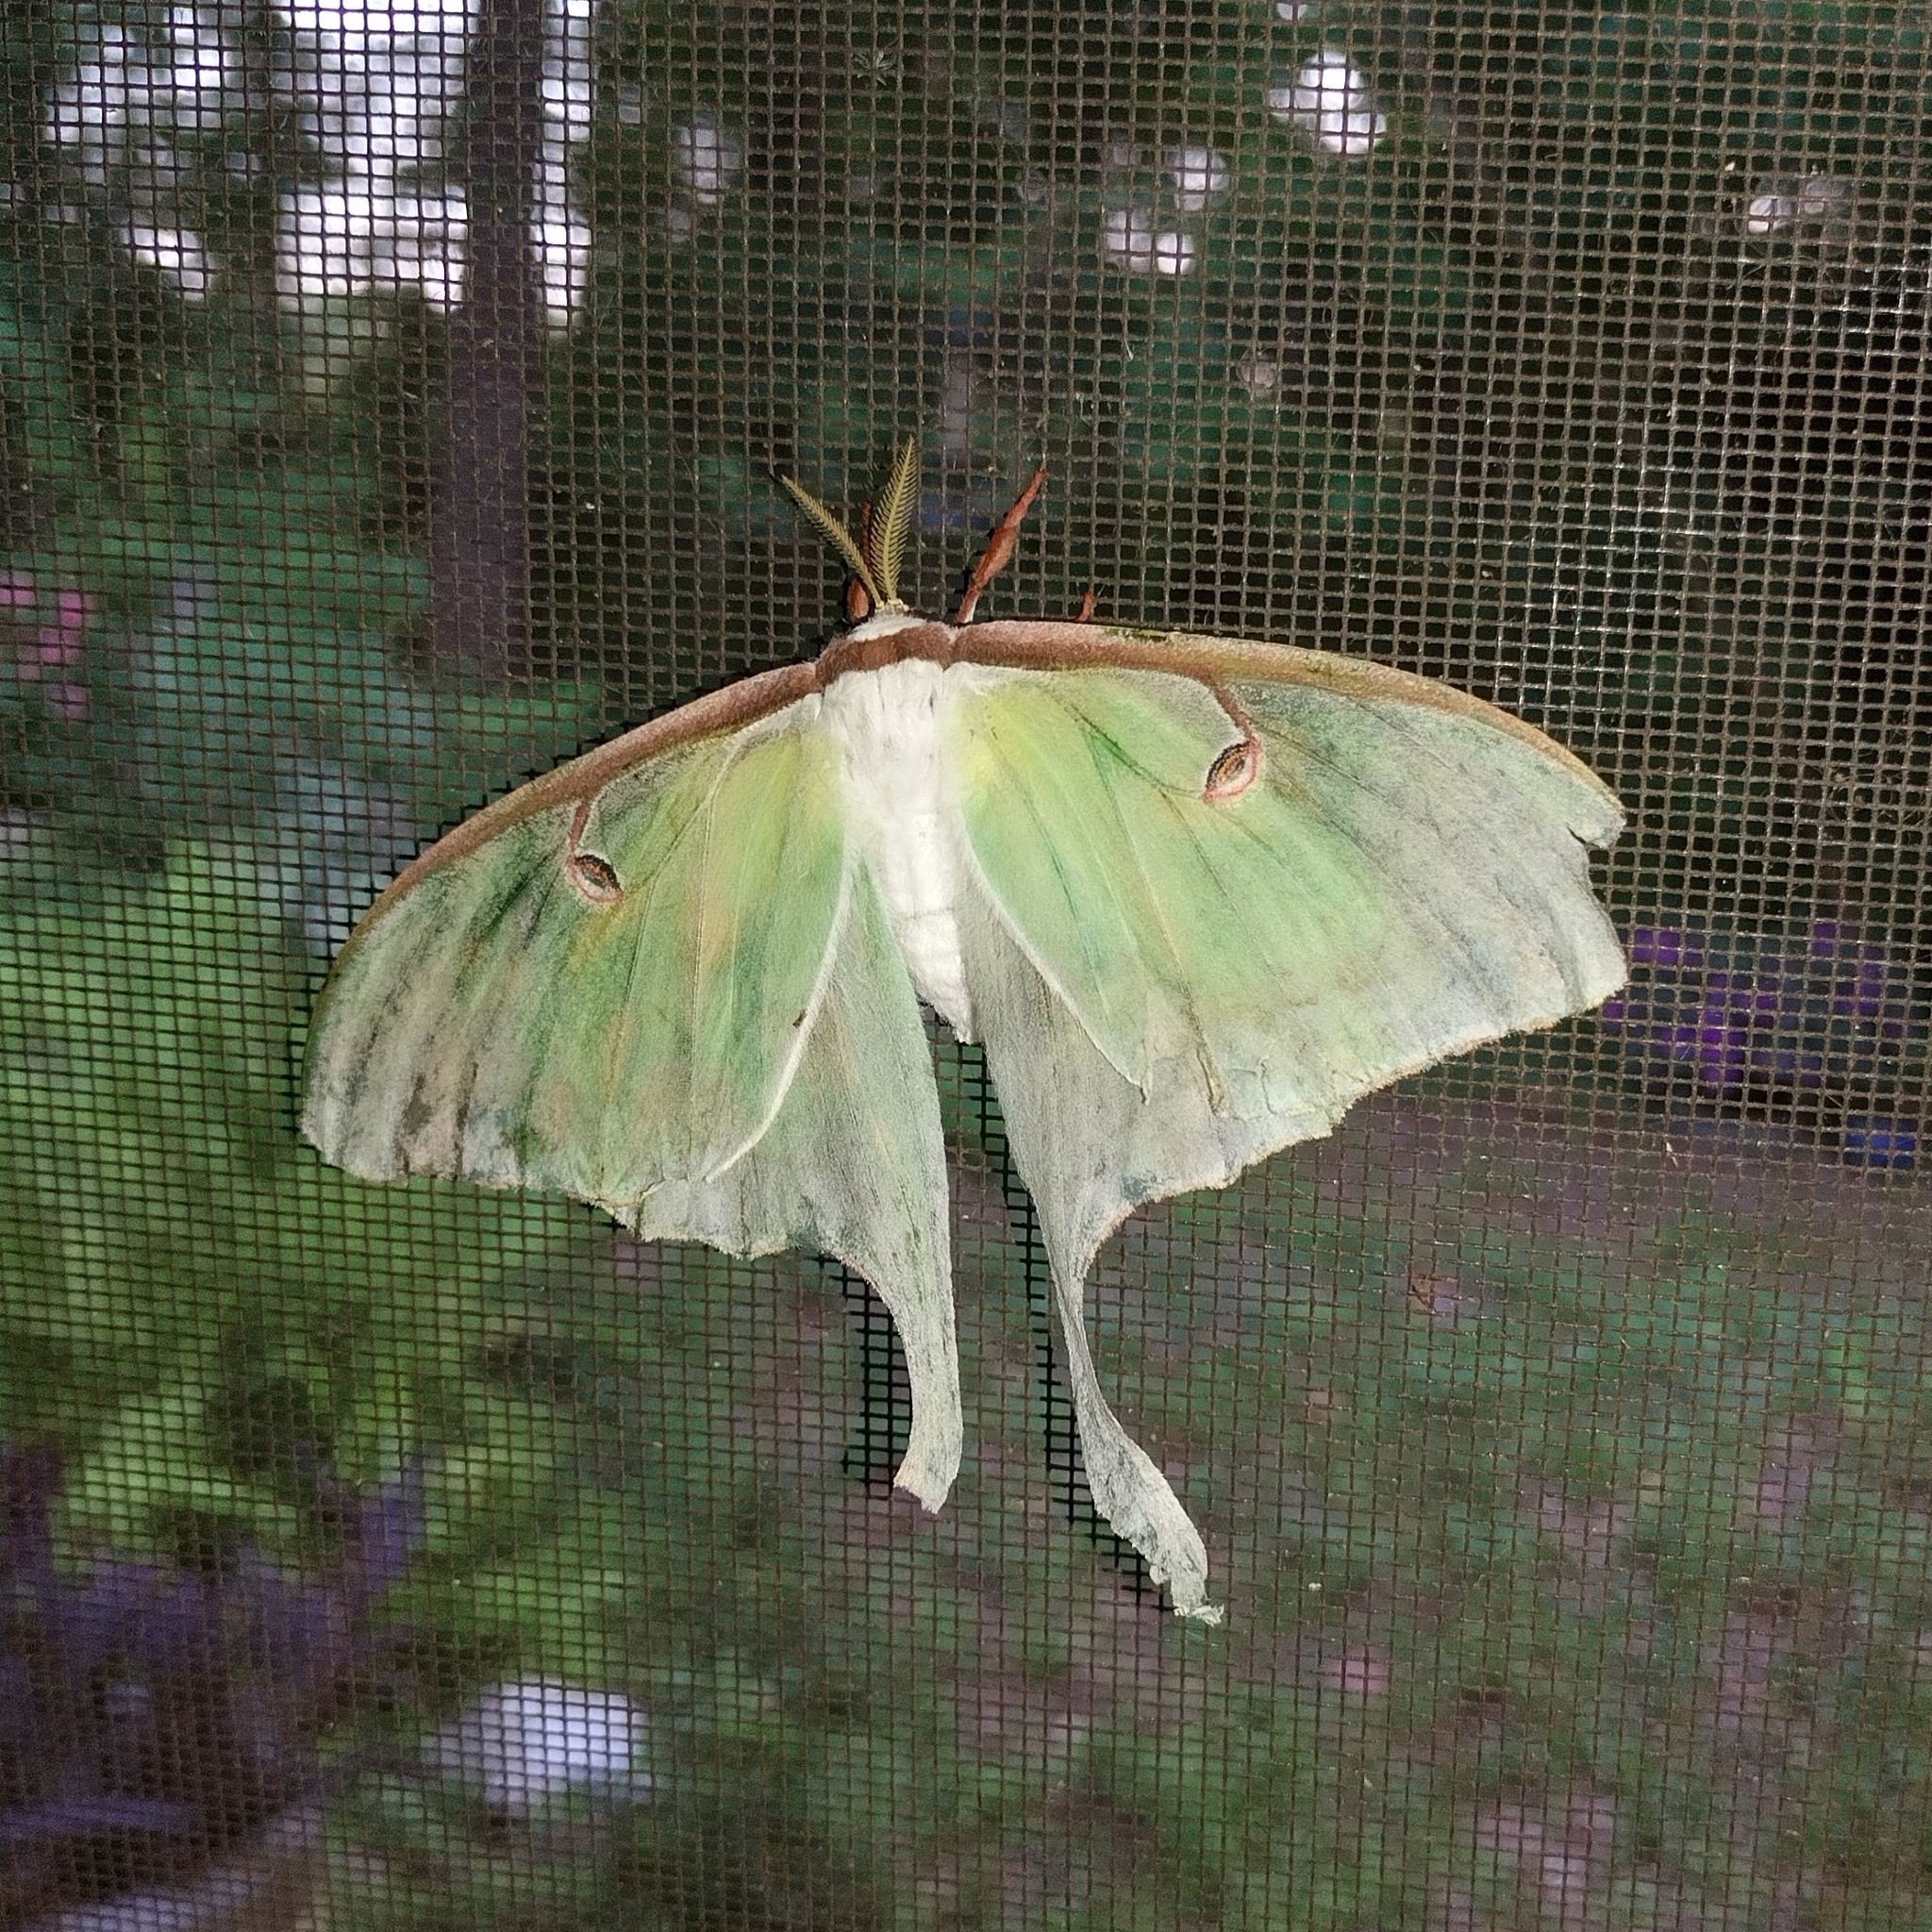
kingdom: Animalia
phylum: Arthropoda
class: Insecta
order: Lepidoptera
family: Saturniidae
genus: Actias
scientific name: Actias luna
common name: Luna moth
